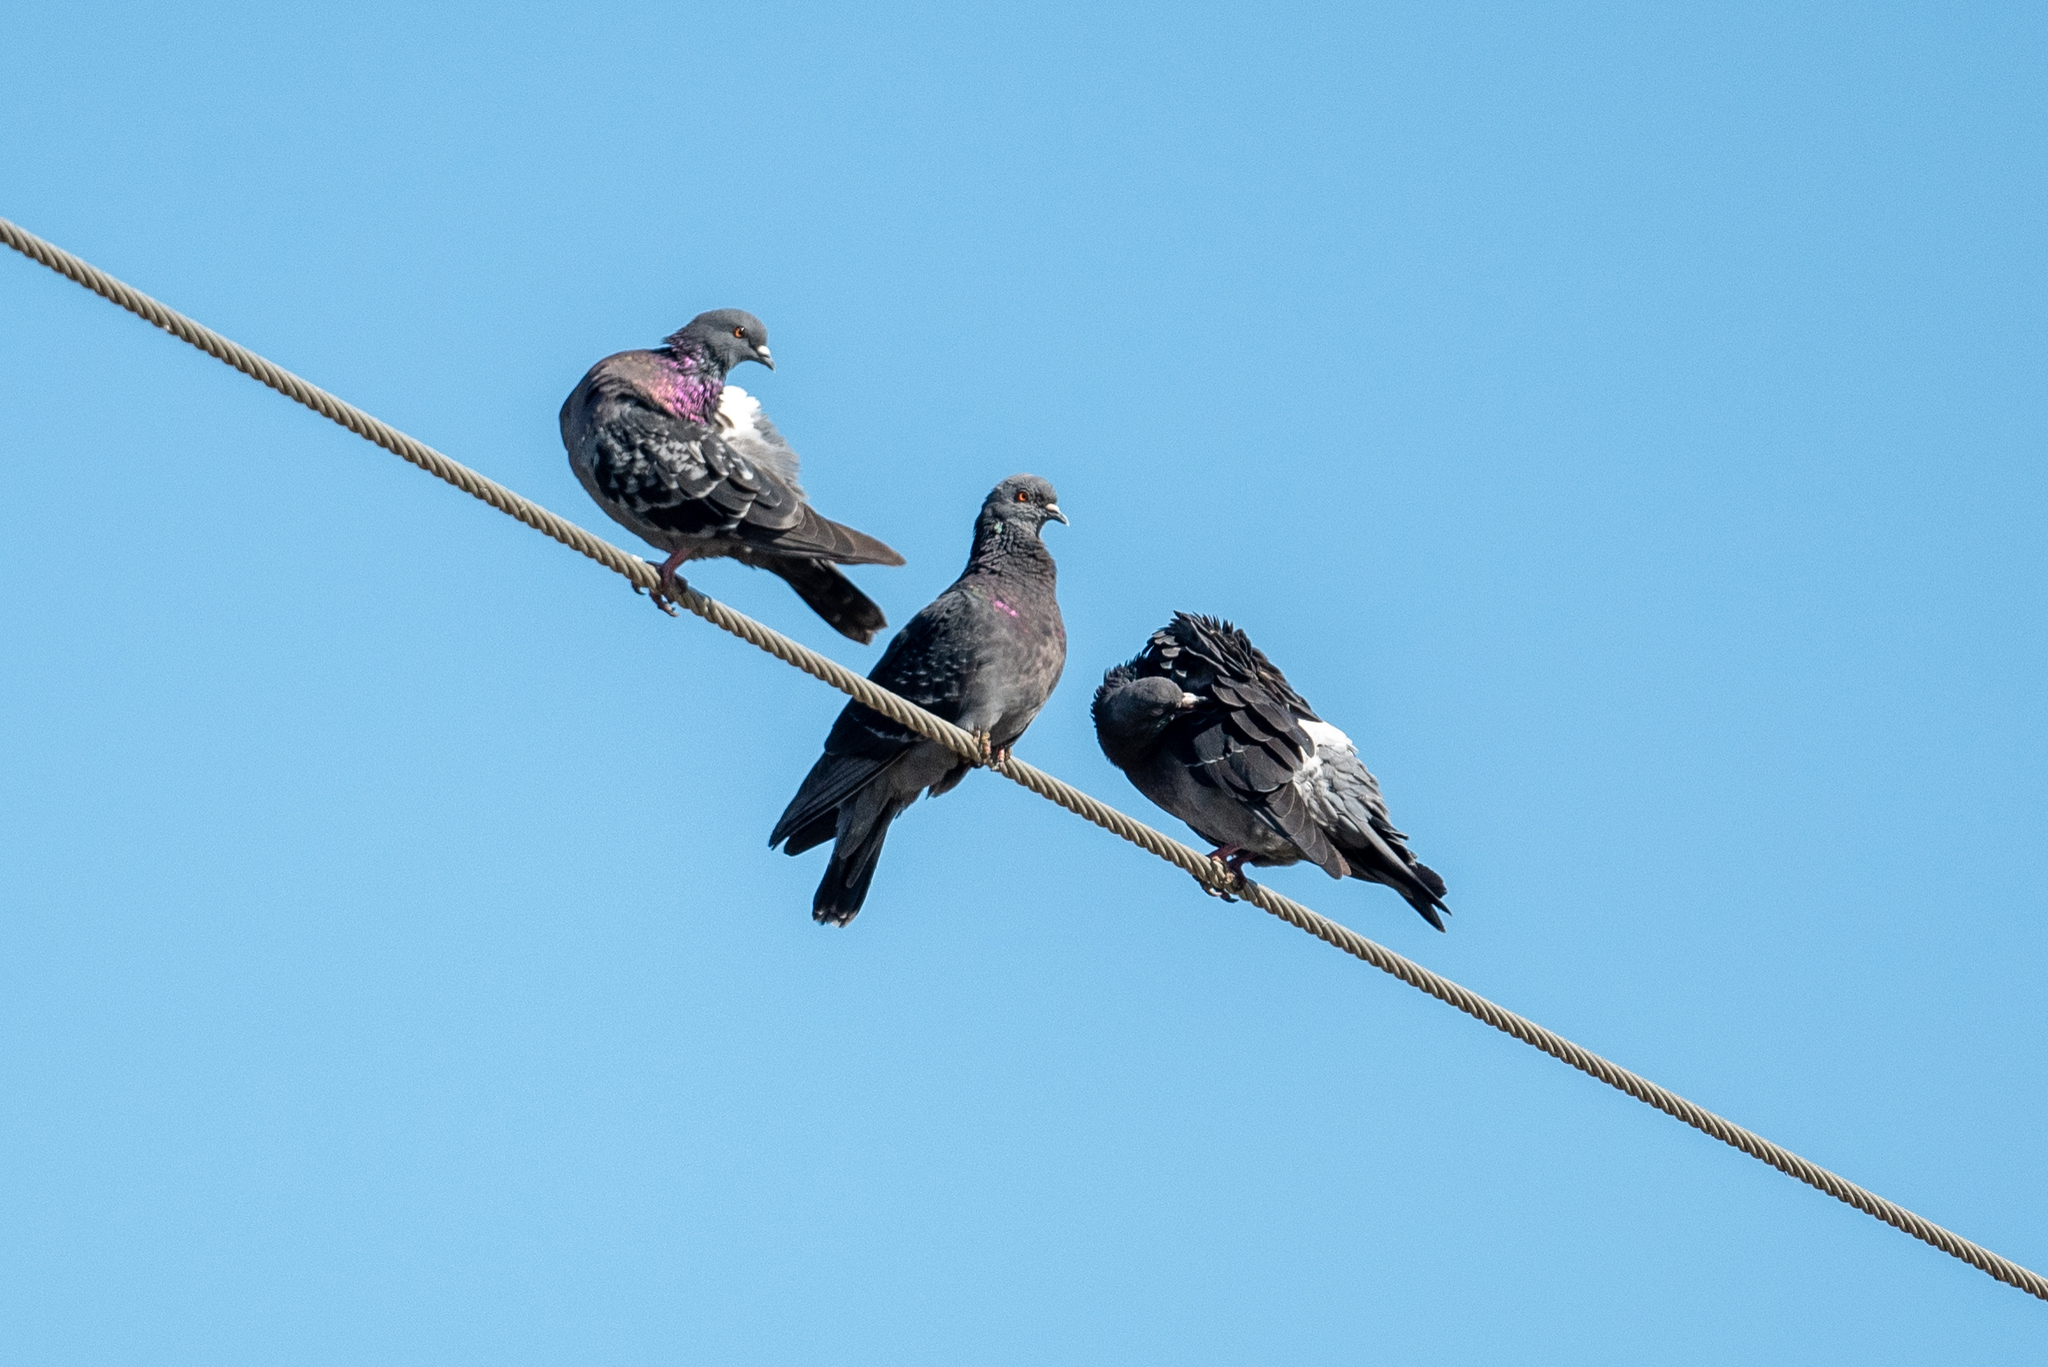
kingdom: Animalia
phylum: Chordata
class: Aves
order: Columbiformes
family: Columbidae
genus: Columba
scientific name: Columba livia
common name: Rock pigeon
